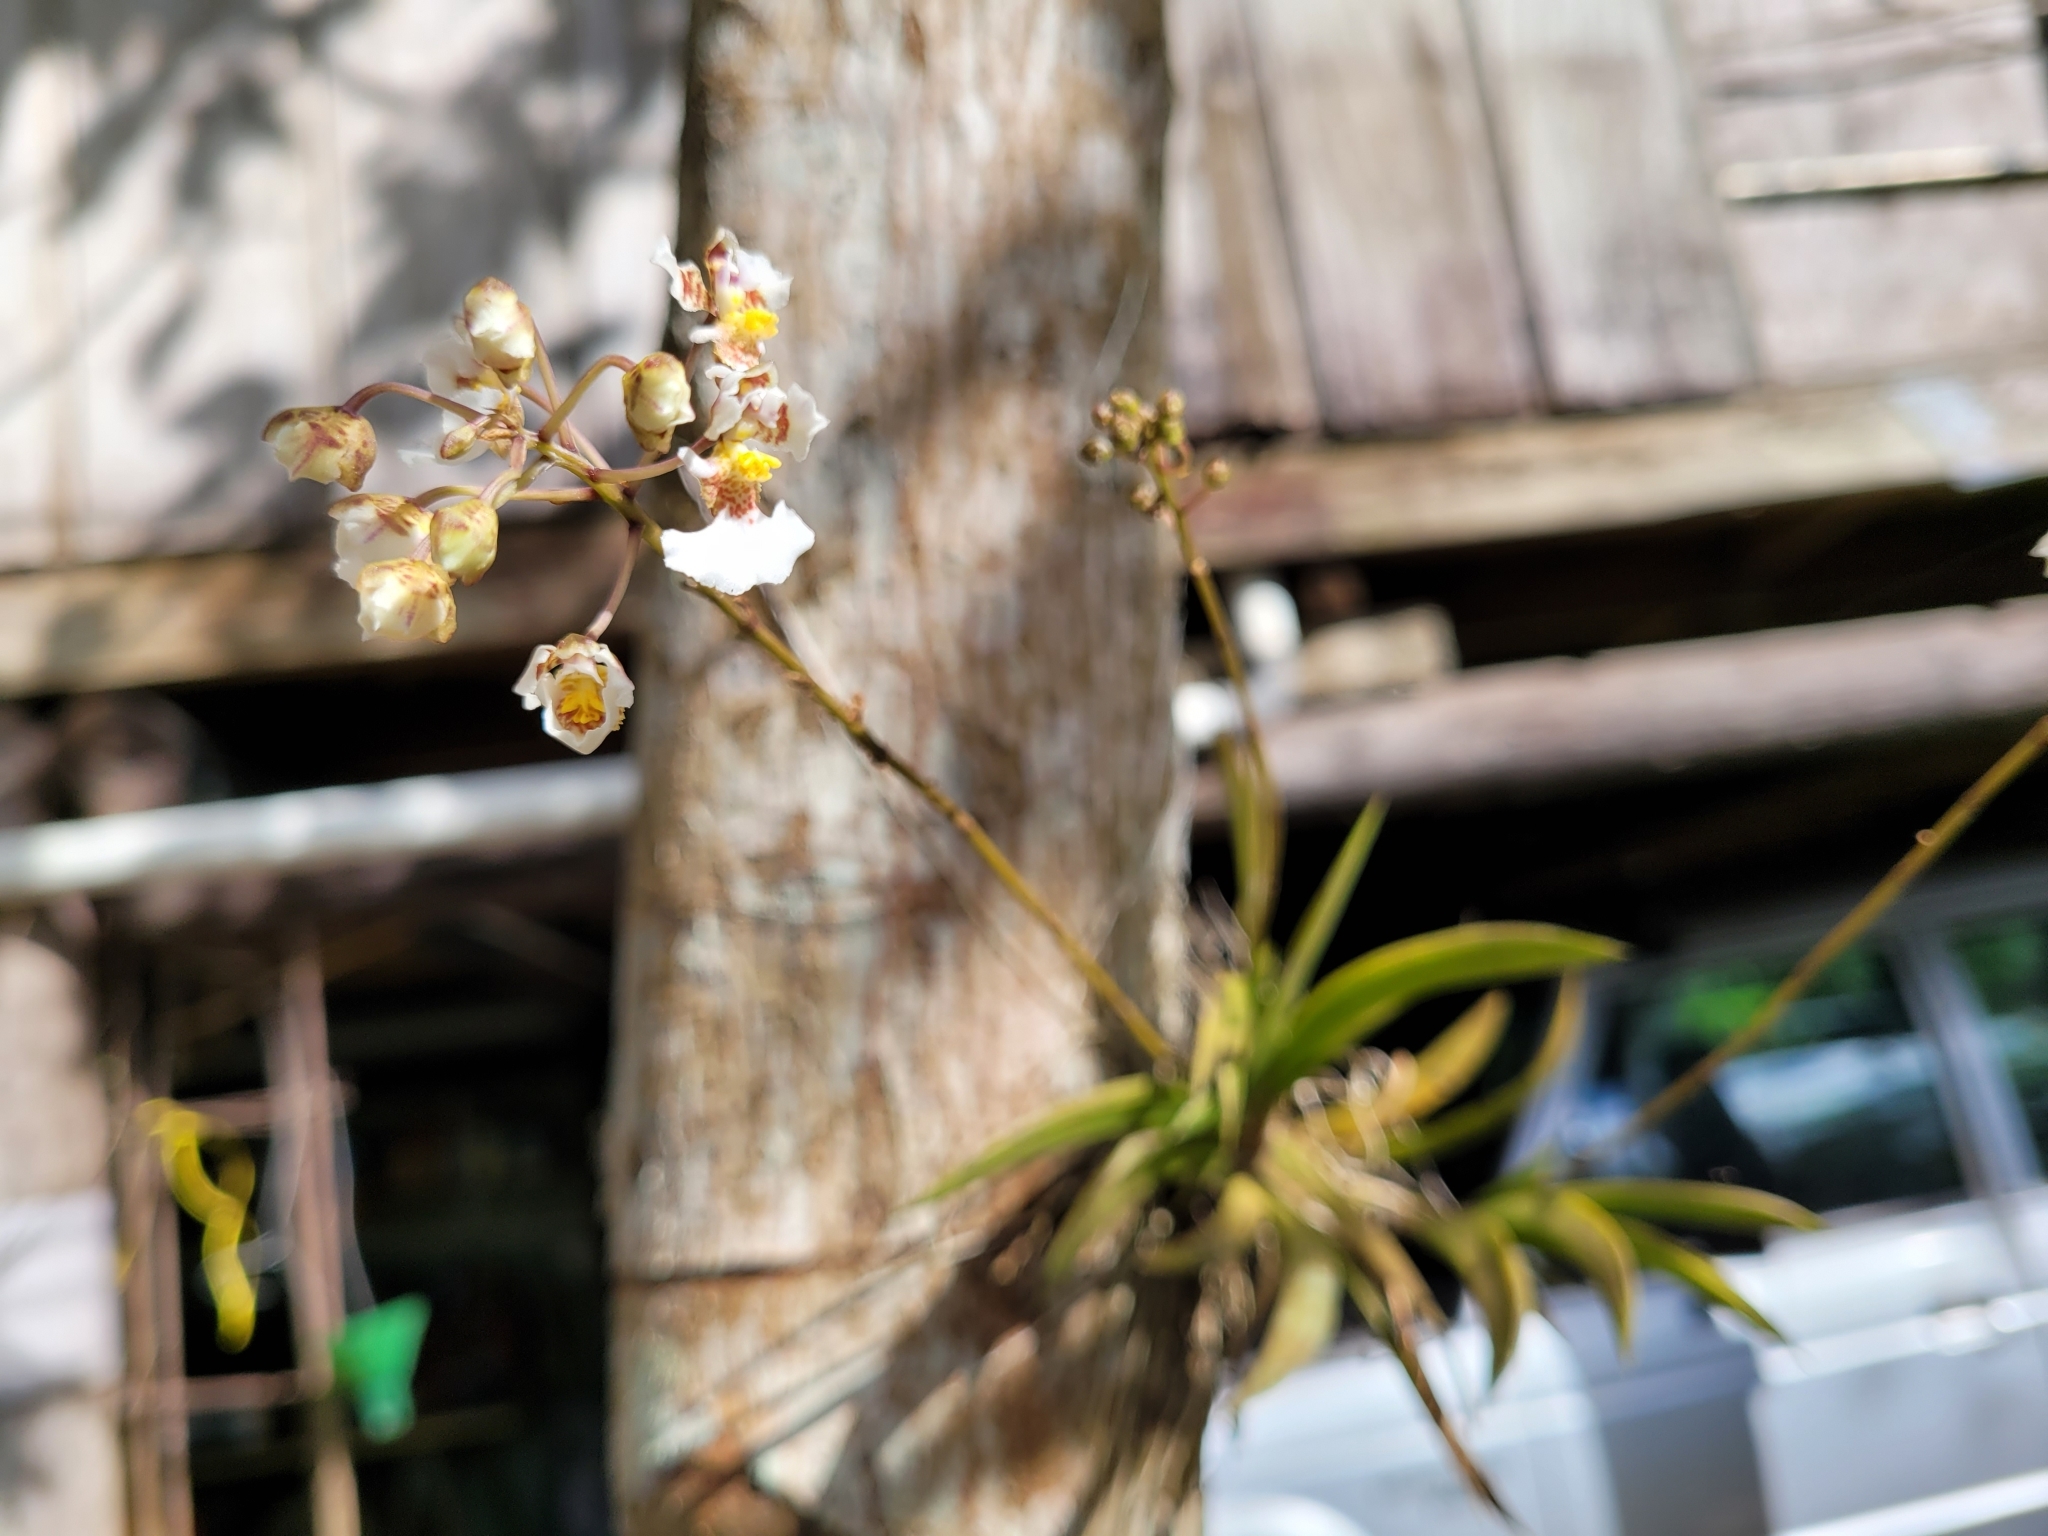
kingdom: Plantae
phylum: Tracheophyta
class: Liliopsida
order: Asparagales
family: Orchidaceae
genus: Tolumnia
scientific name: Tolumnia variegata
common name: Harlequin dancing-lady orchid
